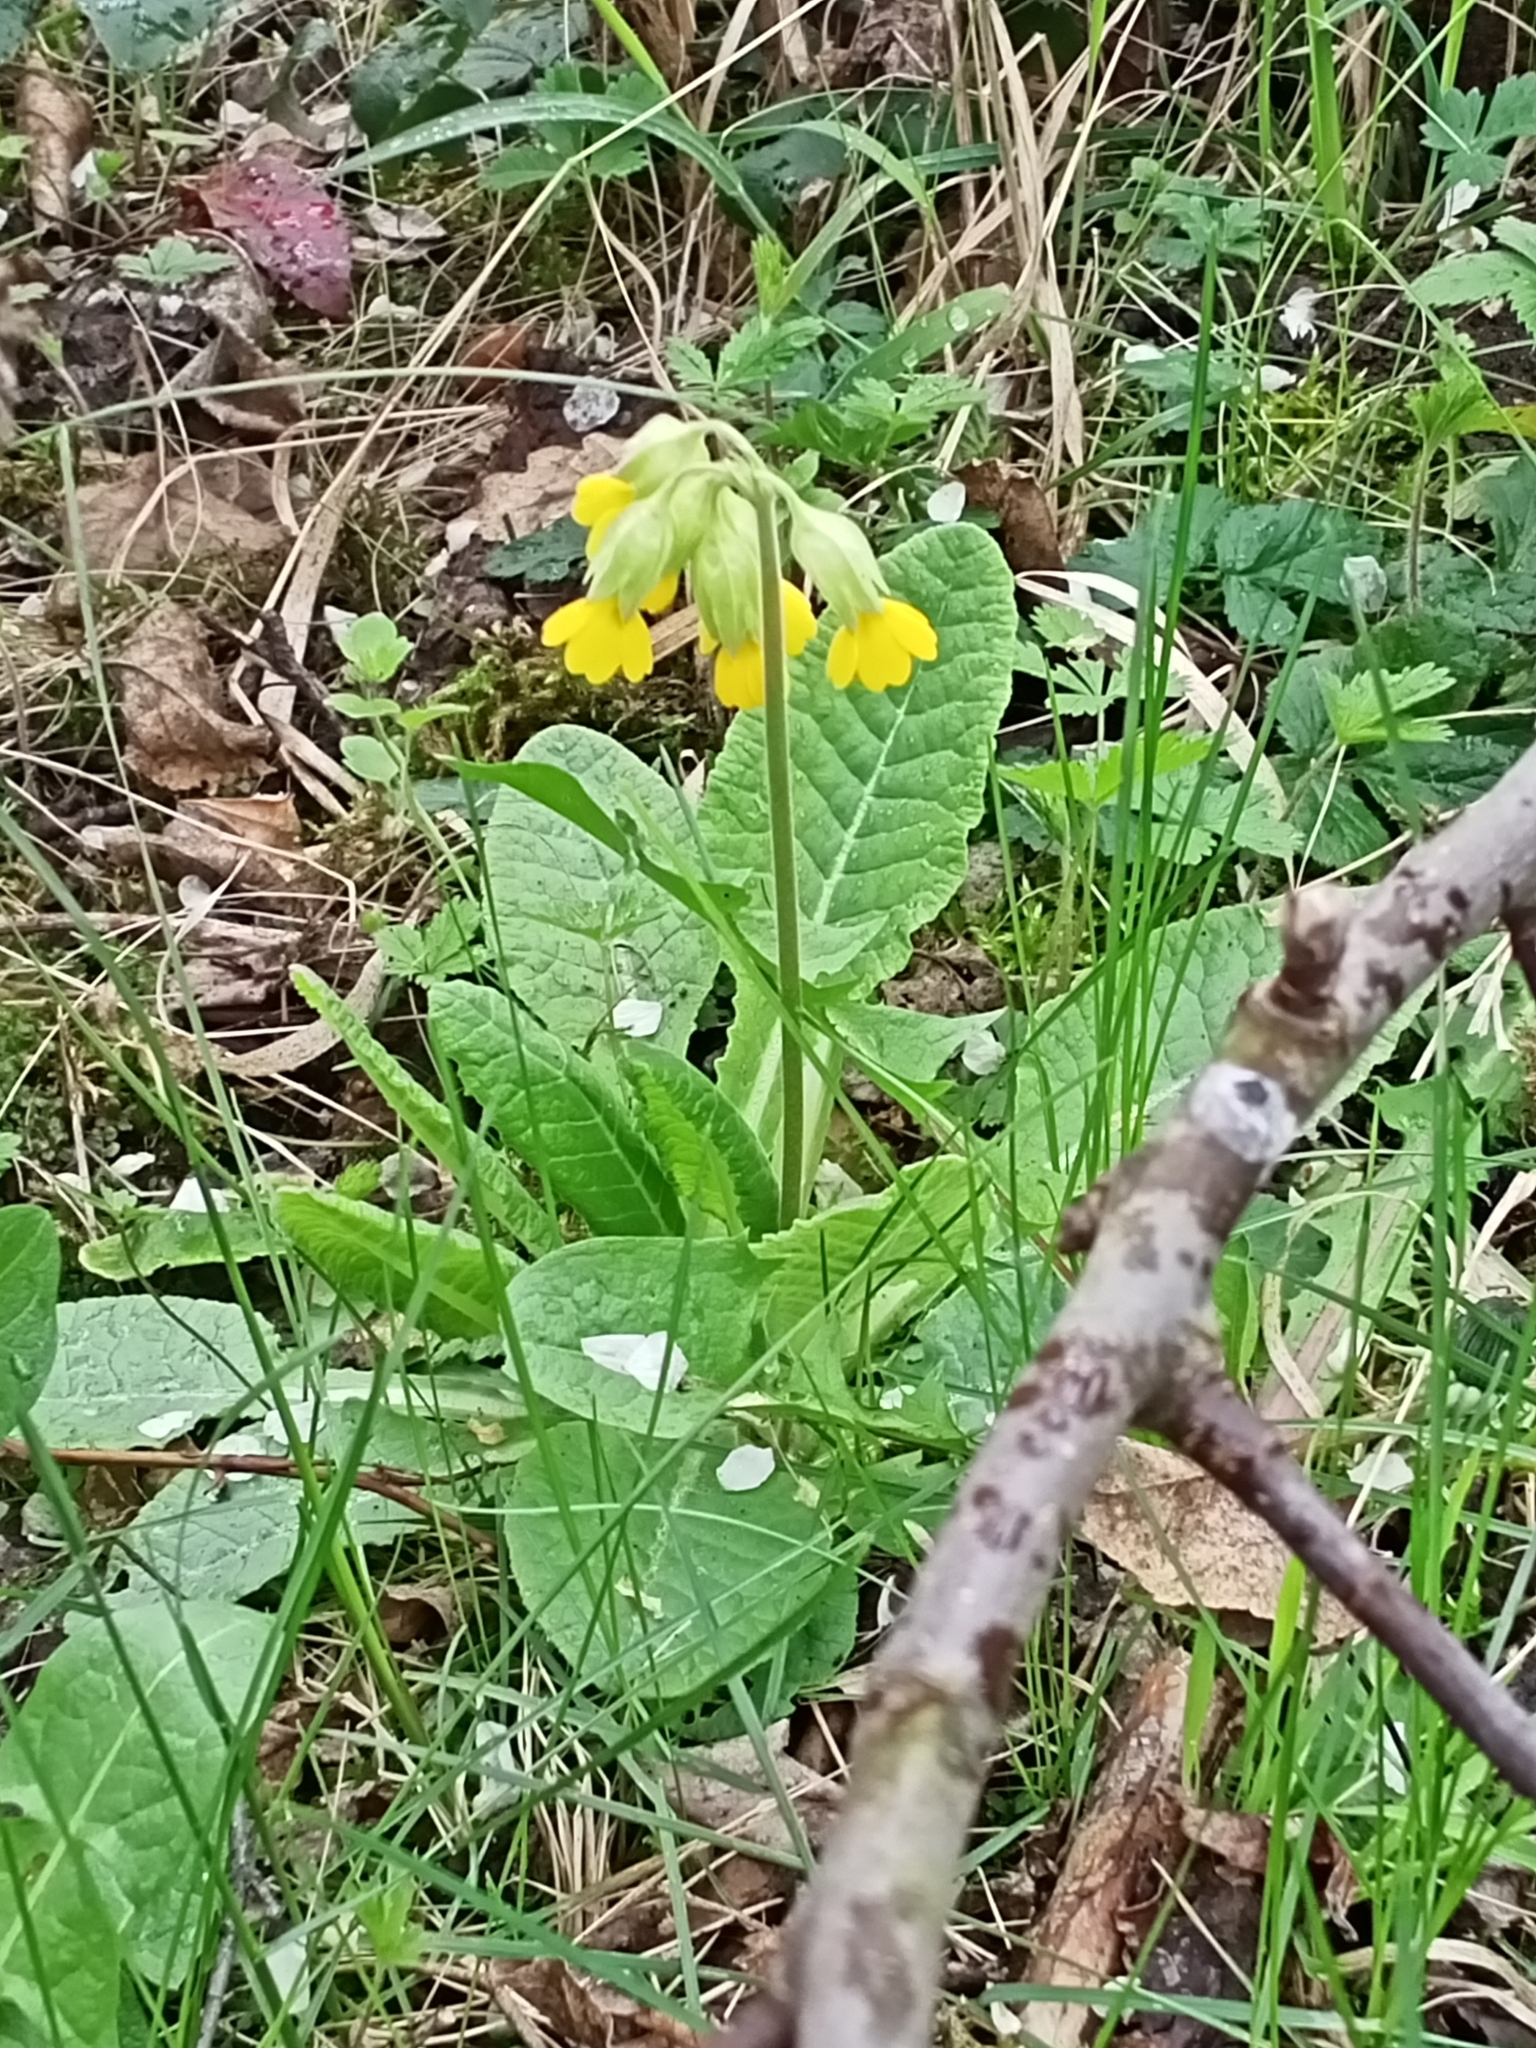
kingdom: Plantae
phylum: Tracheophyta
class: Magnoliopsida
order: Ericales
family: Primulaceae
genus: Primula
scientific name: Primula veris
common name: Cowslip
